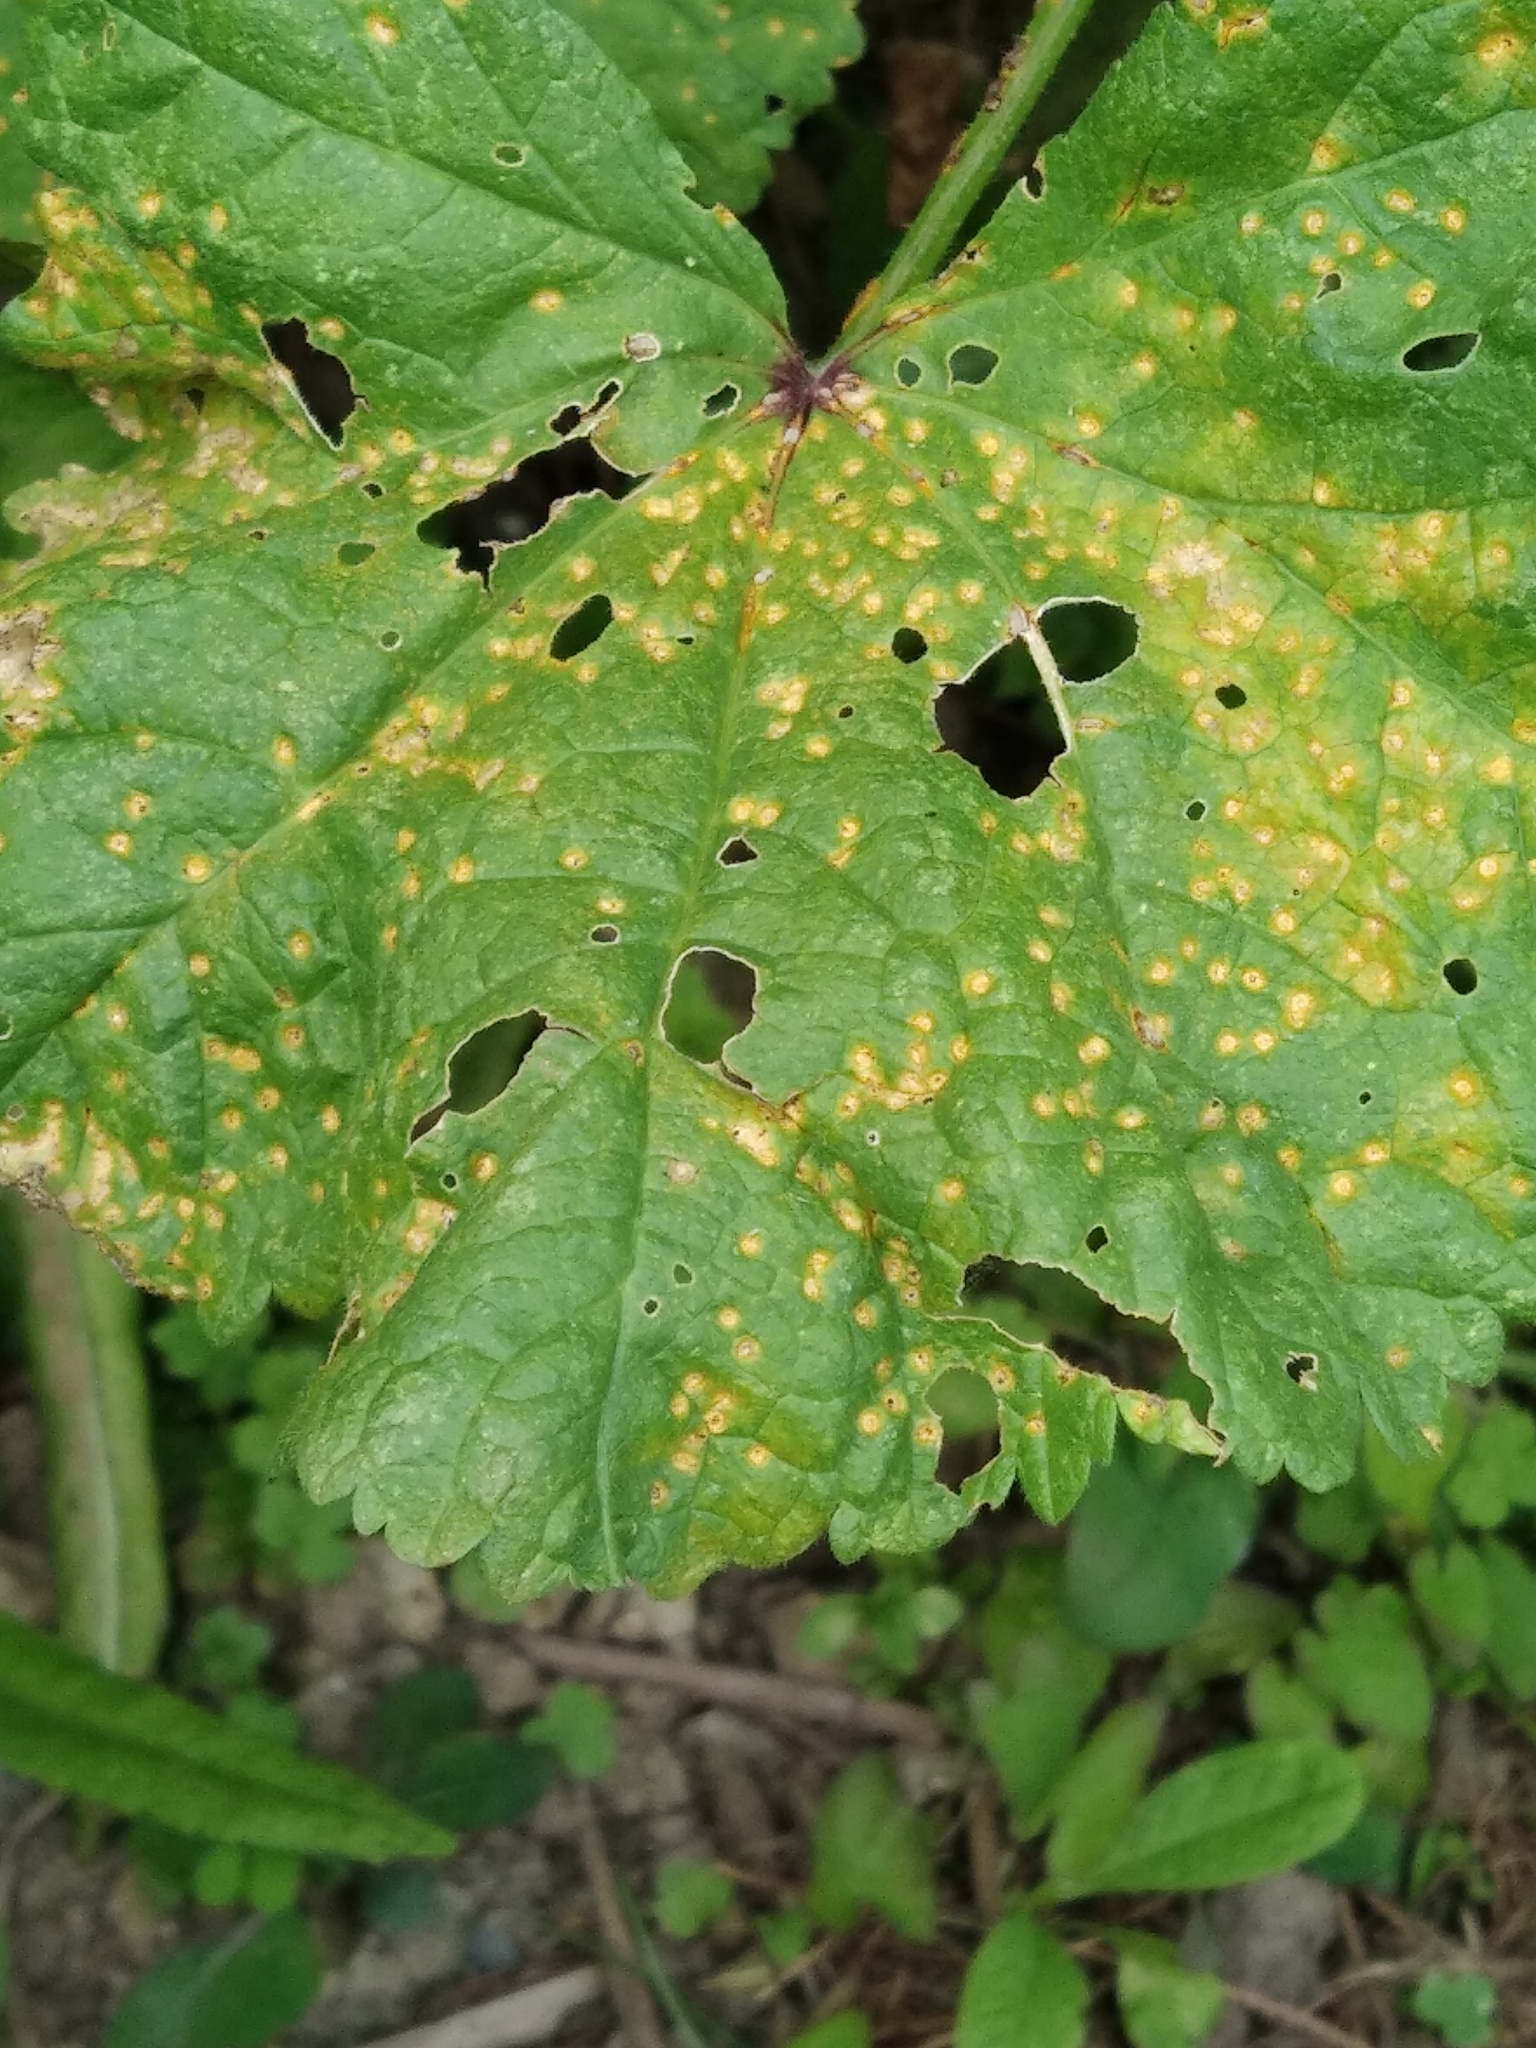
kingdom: Fungi
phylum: Basidiomycota
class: Pucciniomycetes
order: Pucciniales
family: Pucciniaceae
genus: Puccinia
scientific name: Puccinia malvacearum
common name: Hollyhock rust
